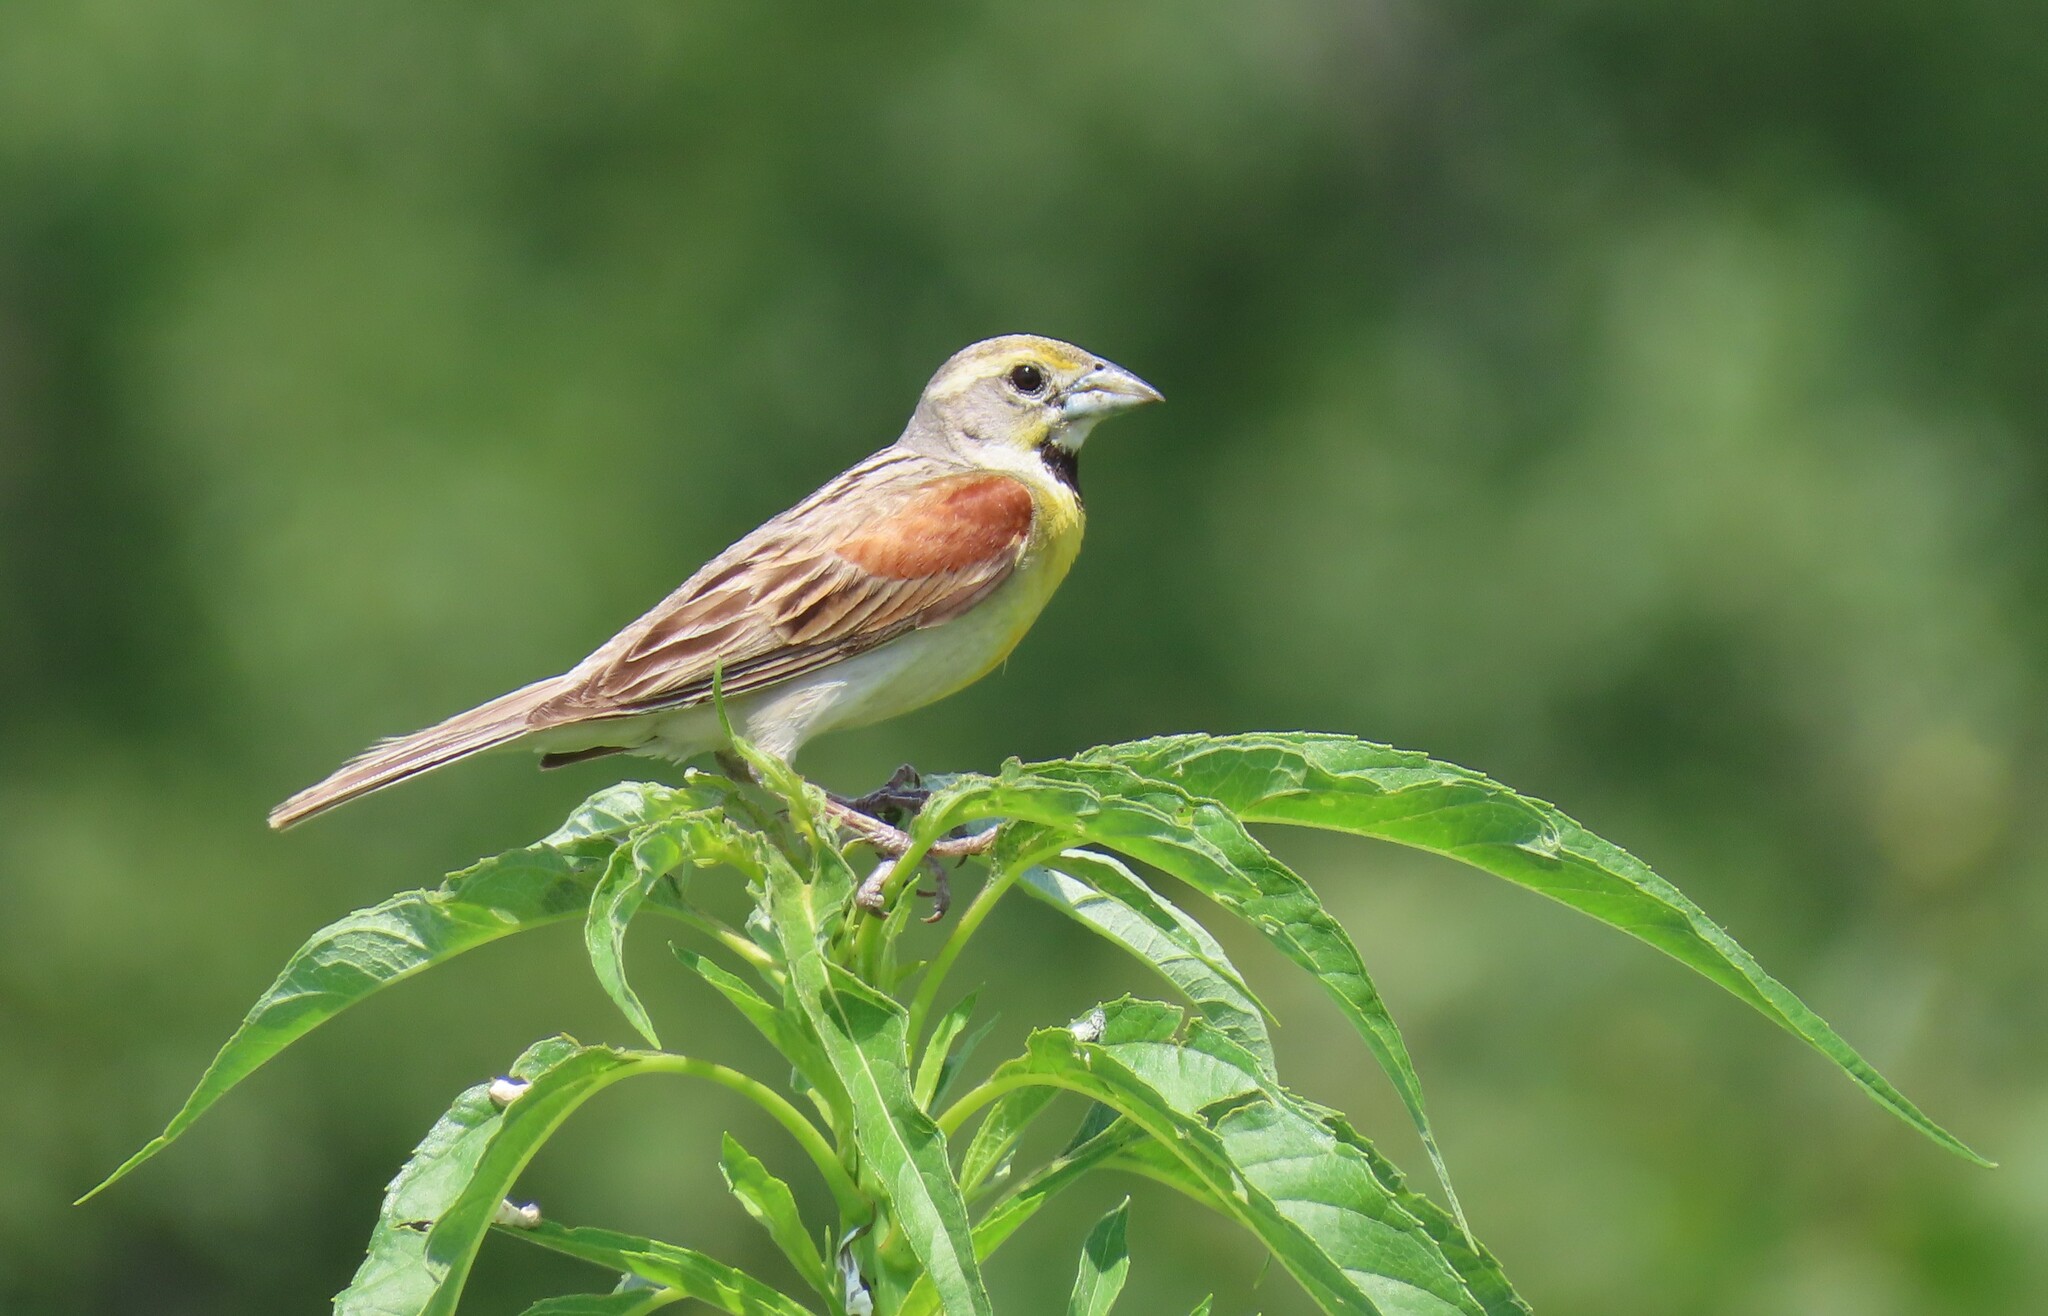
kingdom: Animalia
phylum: Chordata
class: Aves
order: Passeriformes
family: Cardinalidae
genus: Spiza
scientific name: Spiza americana
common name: Dickcissel
